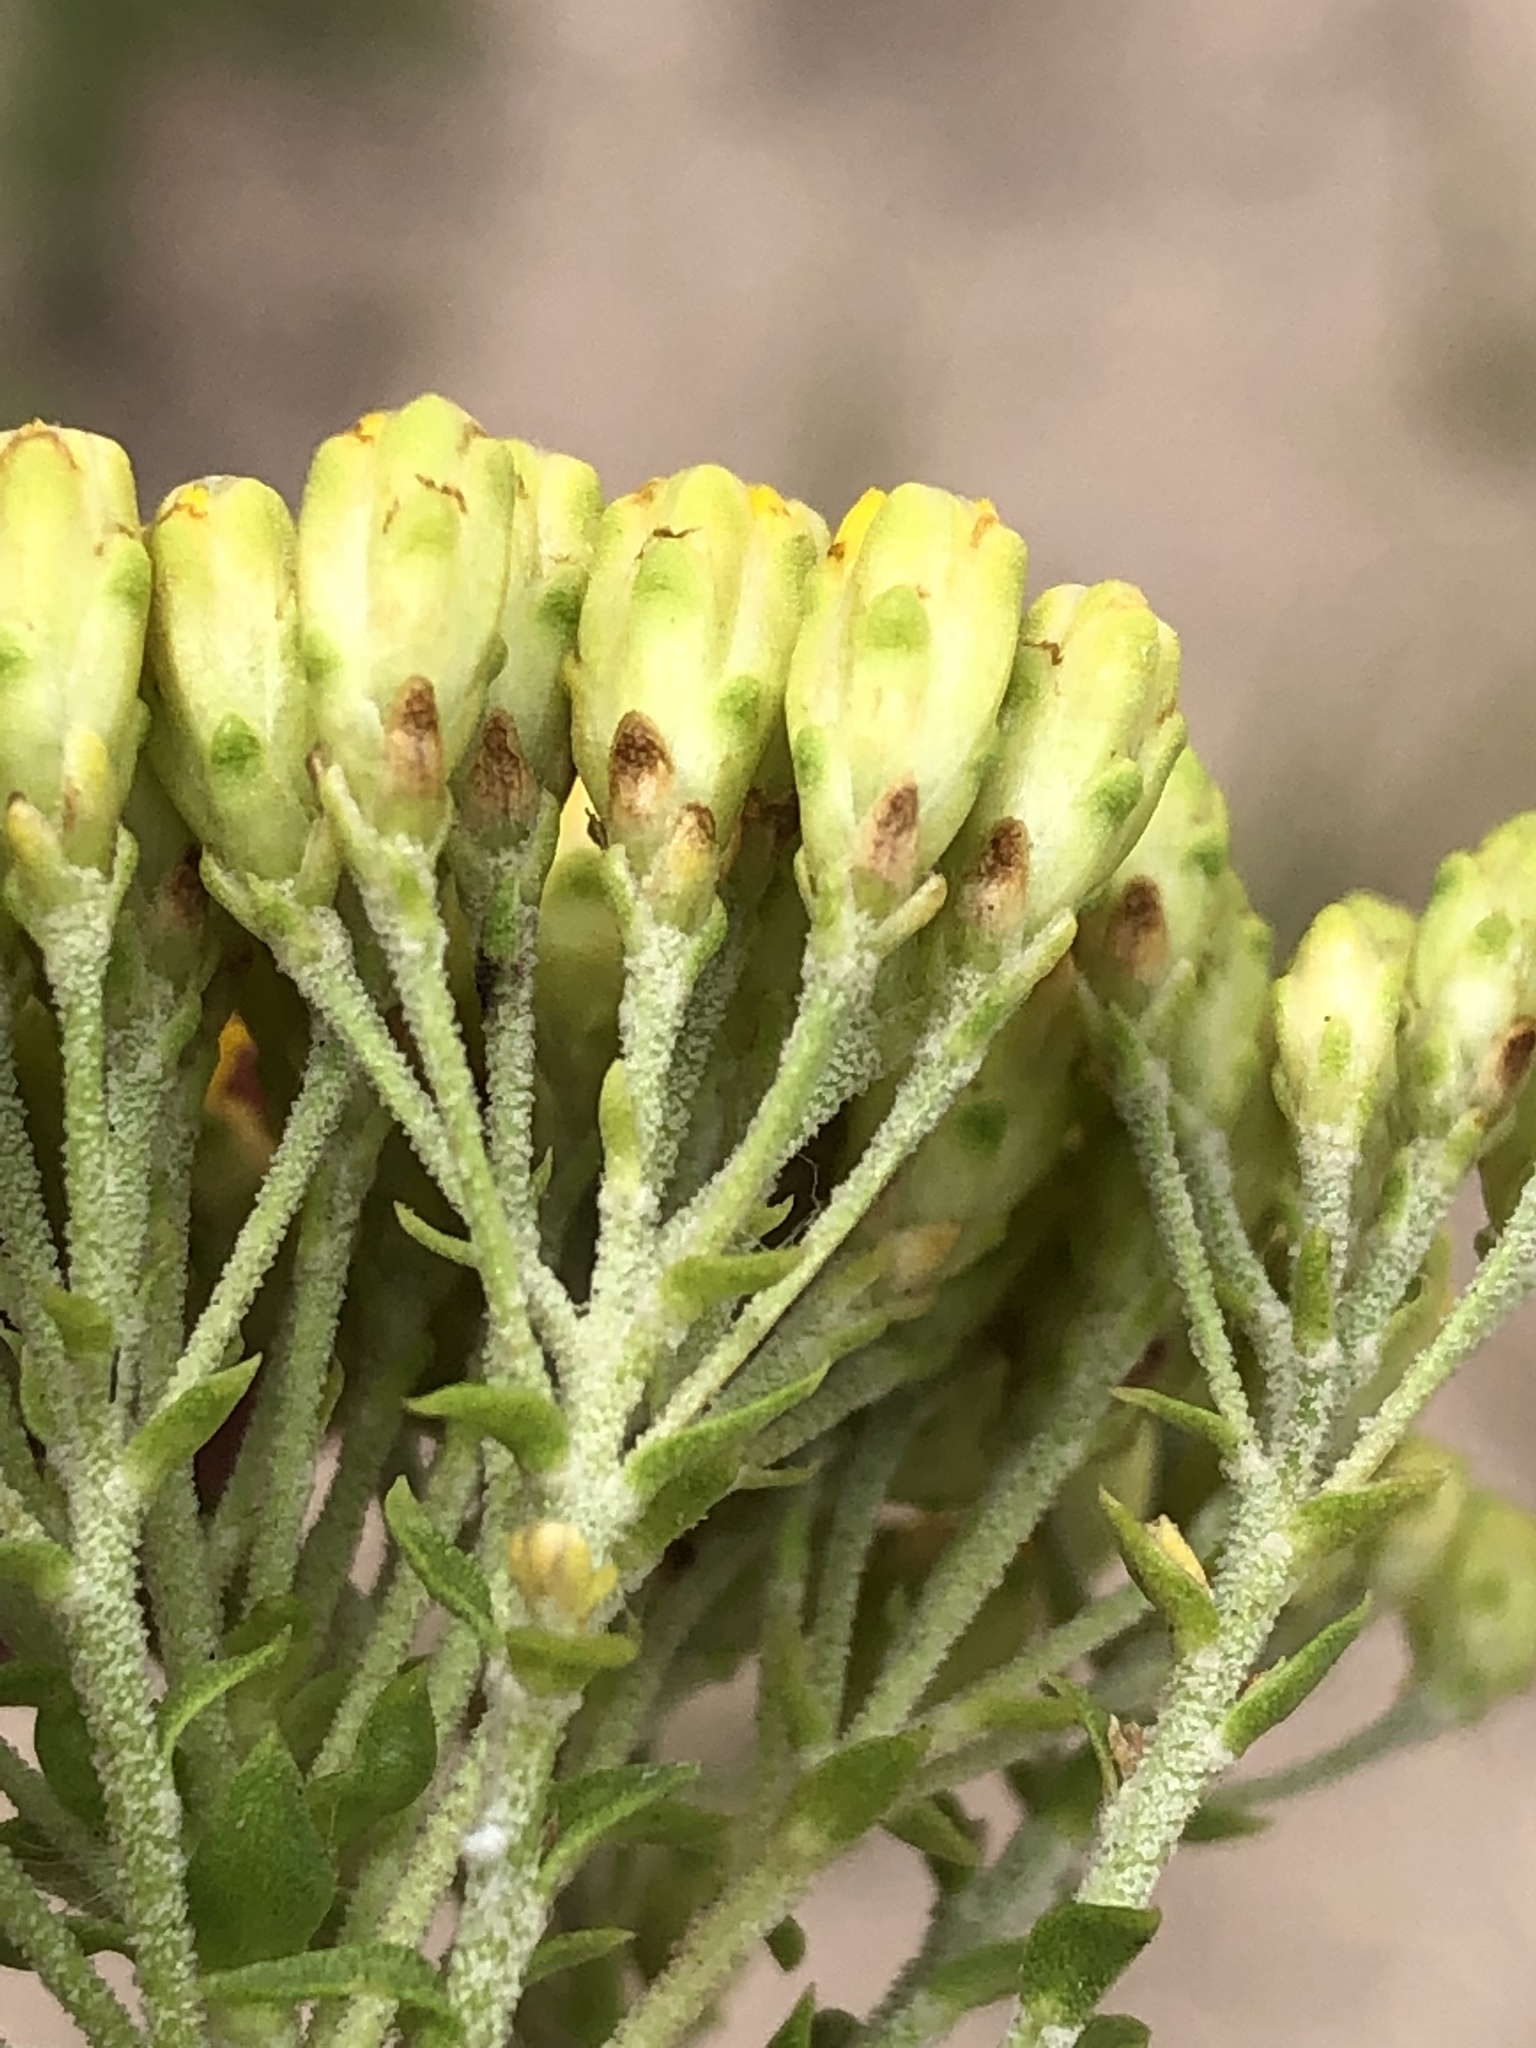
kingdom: Plantae
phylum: Tracheophyta
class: Magnoliopsida
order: Asterales
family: Asteraceae
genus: Athanasia
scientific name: Athanasia quinquedentata
